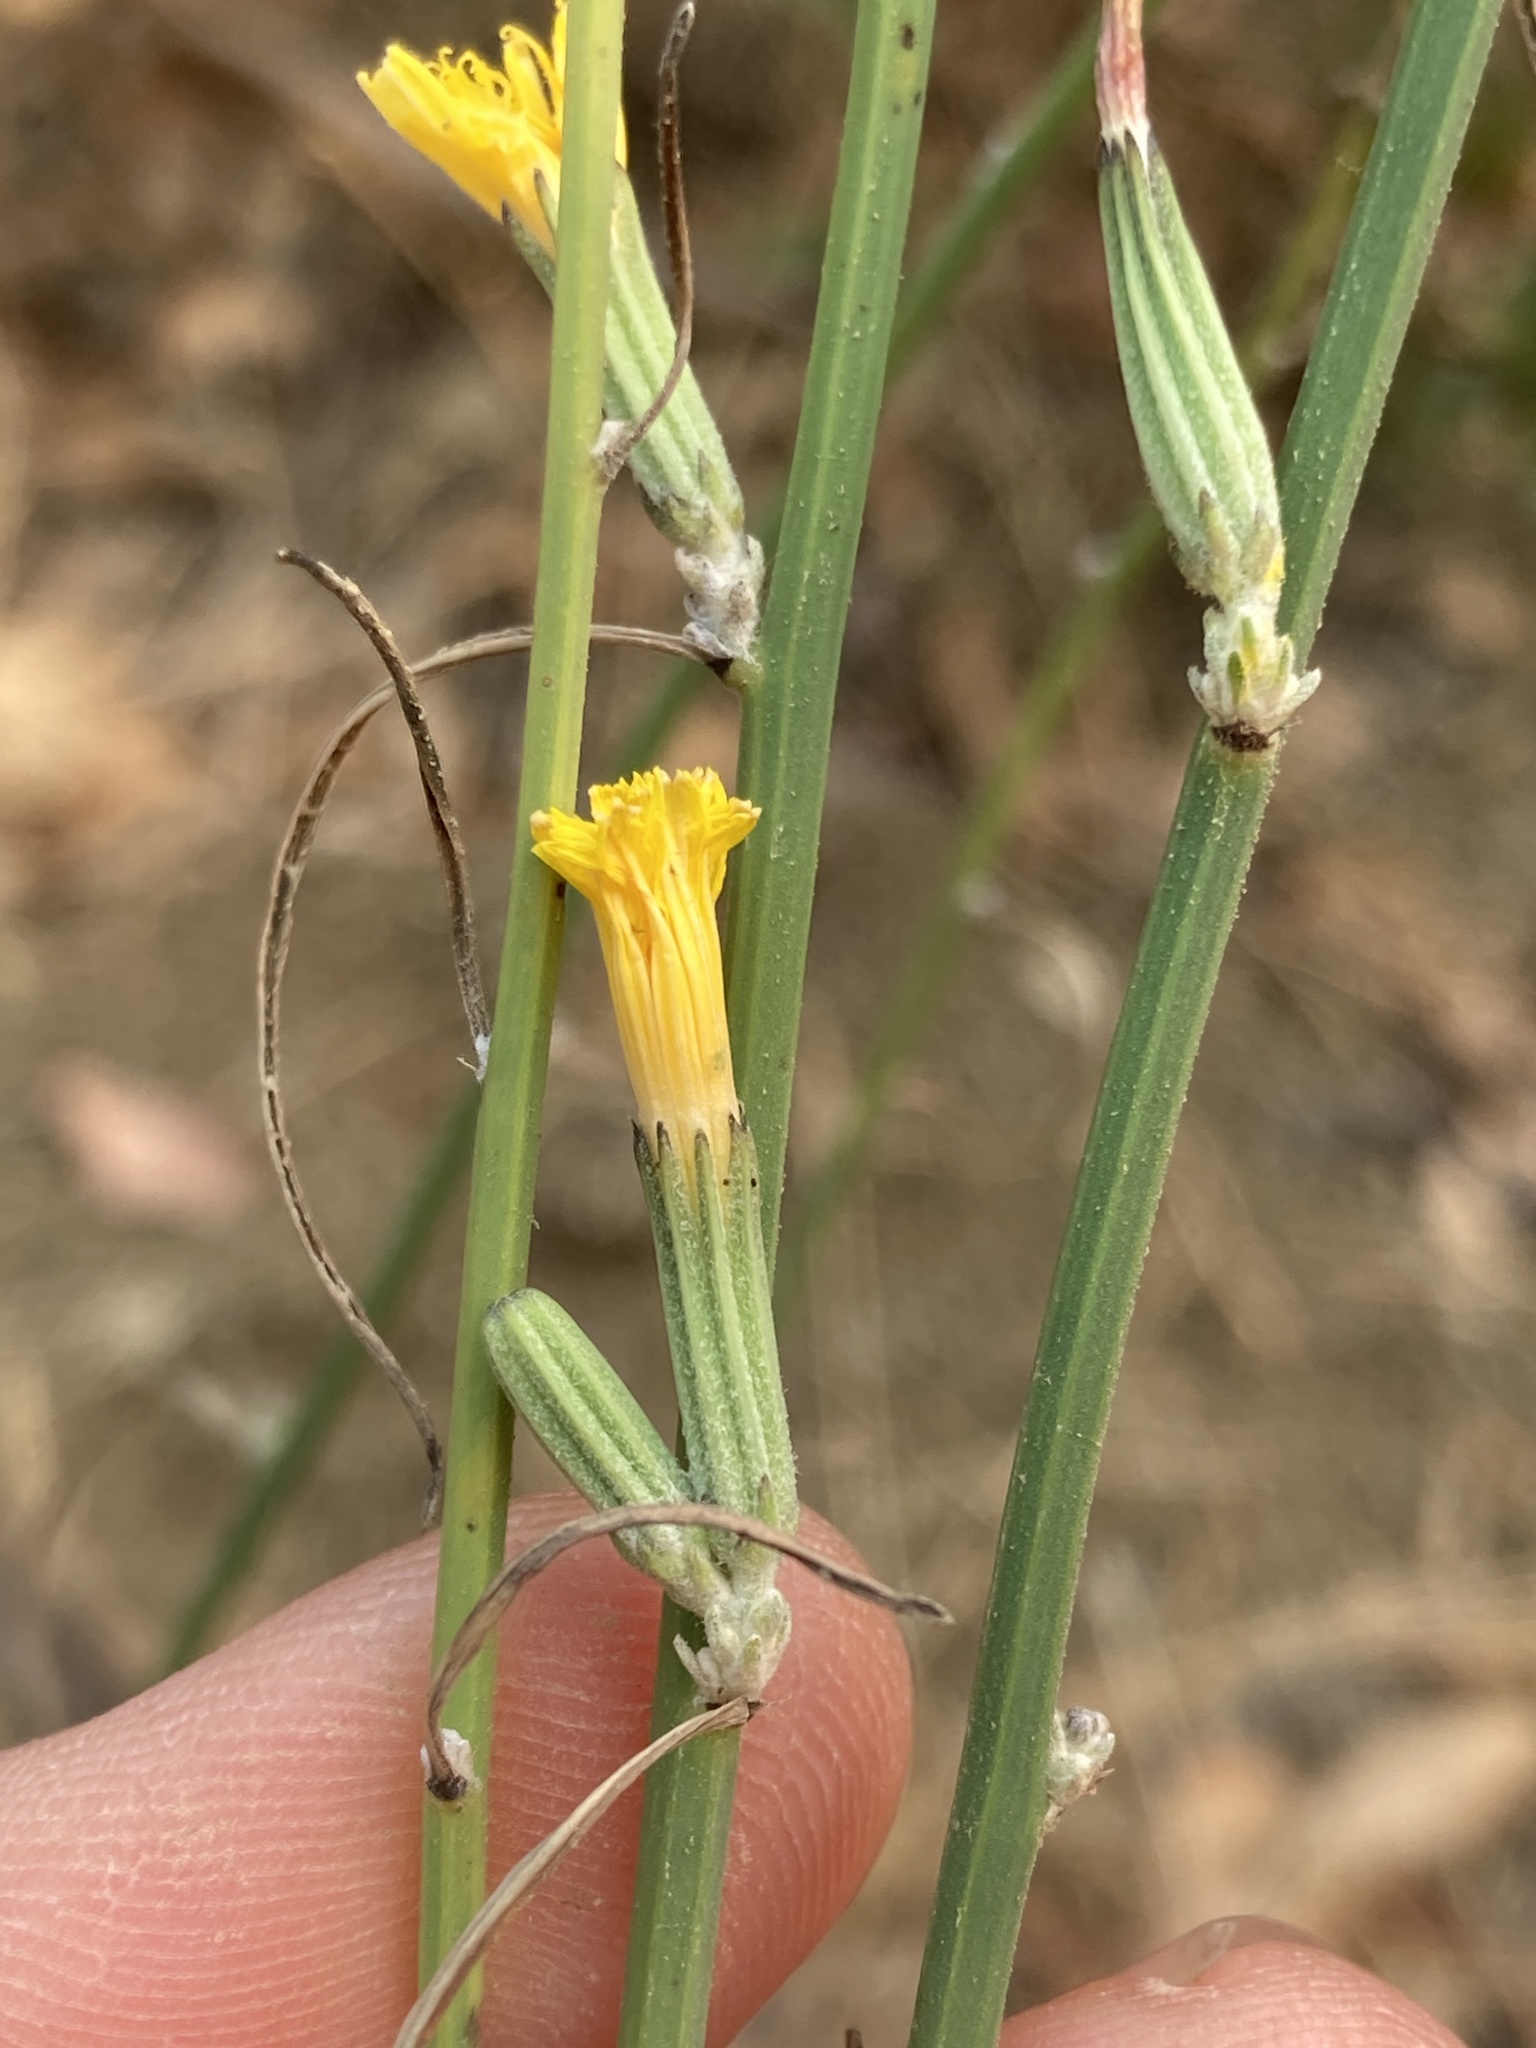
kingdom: Plantae
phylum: Tracheophyta
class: Magnoliopsida
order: Asterales
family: Asteraceae
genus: Chondrilla
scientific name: Chondrilla juncea
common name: Skeleton weed
